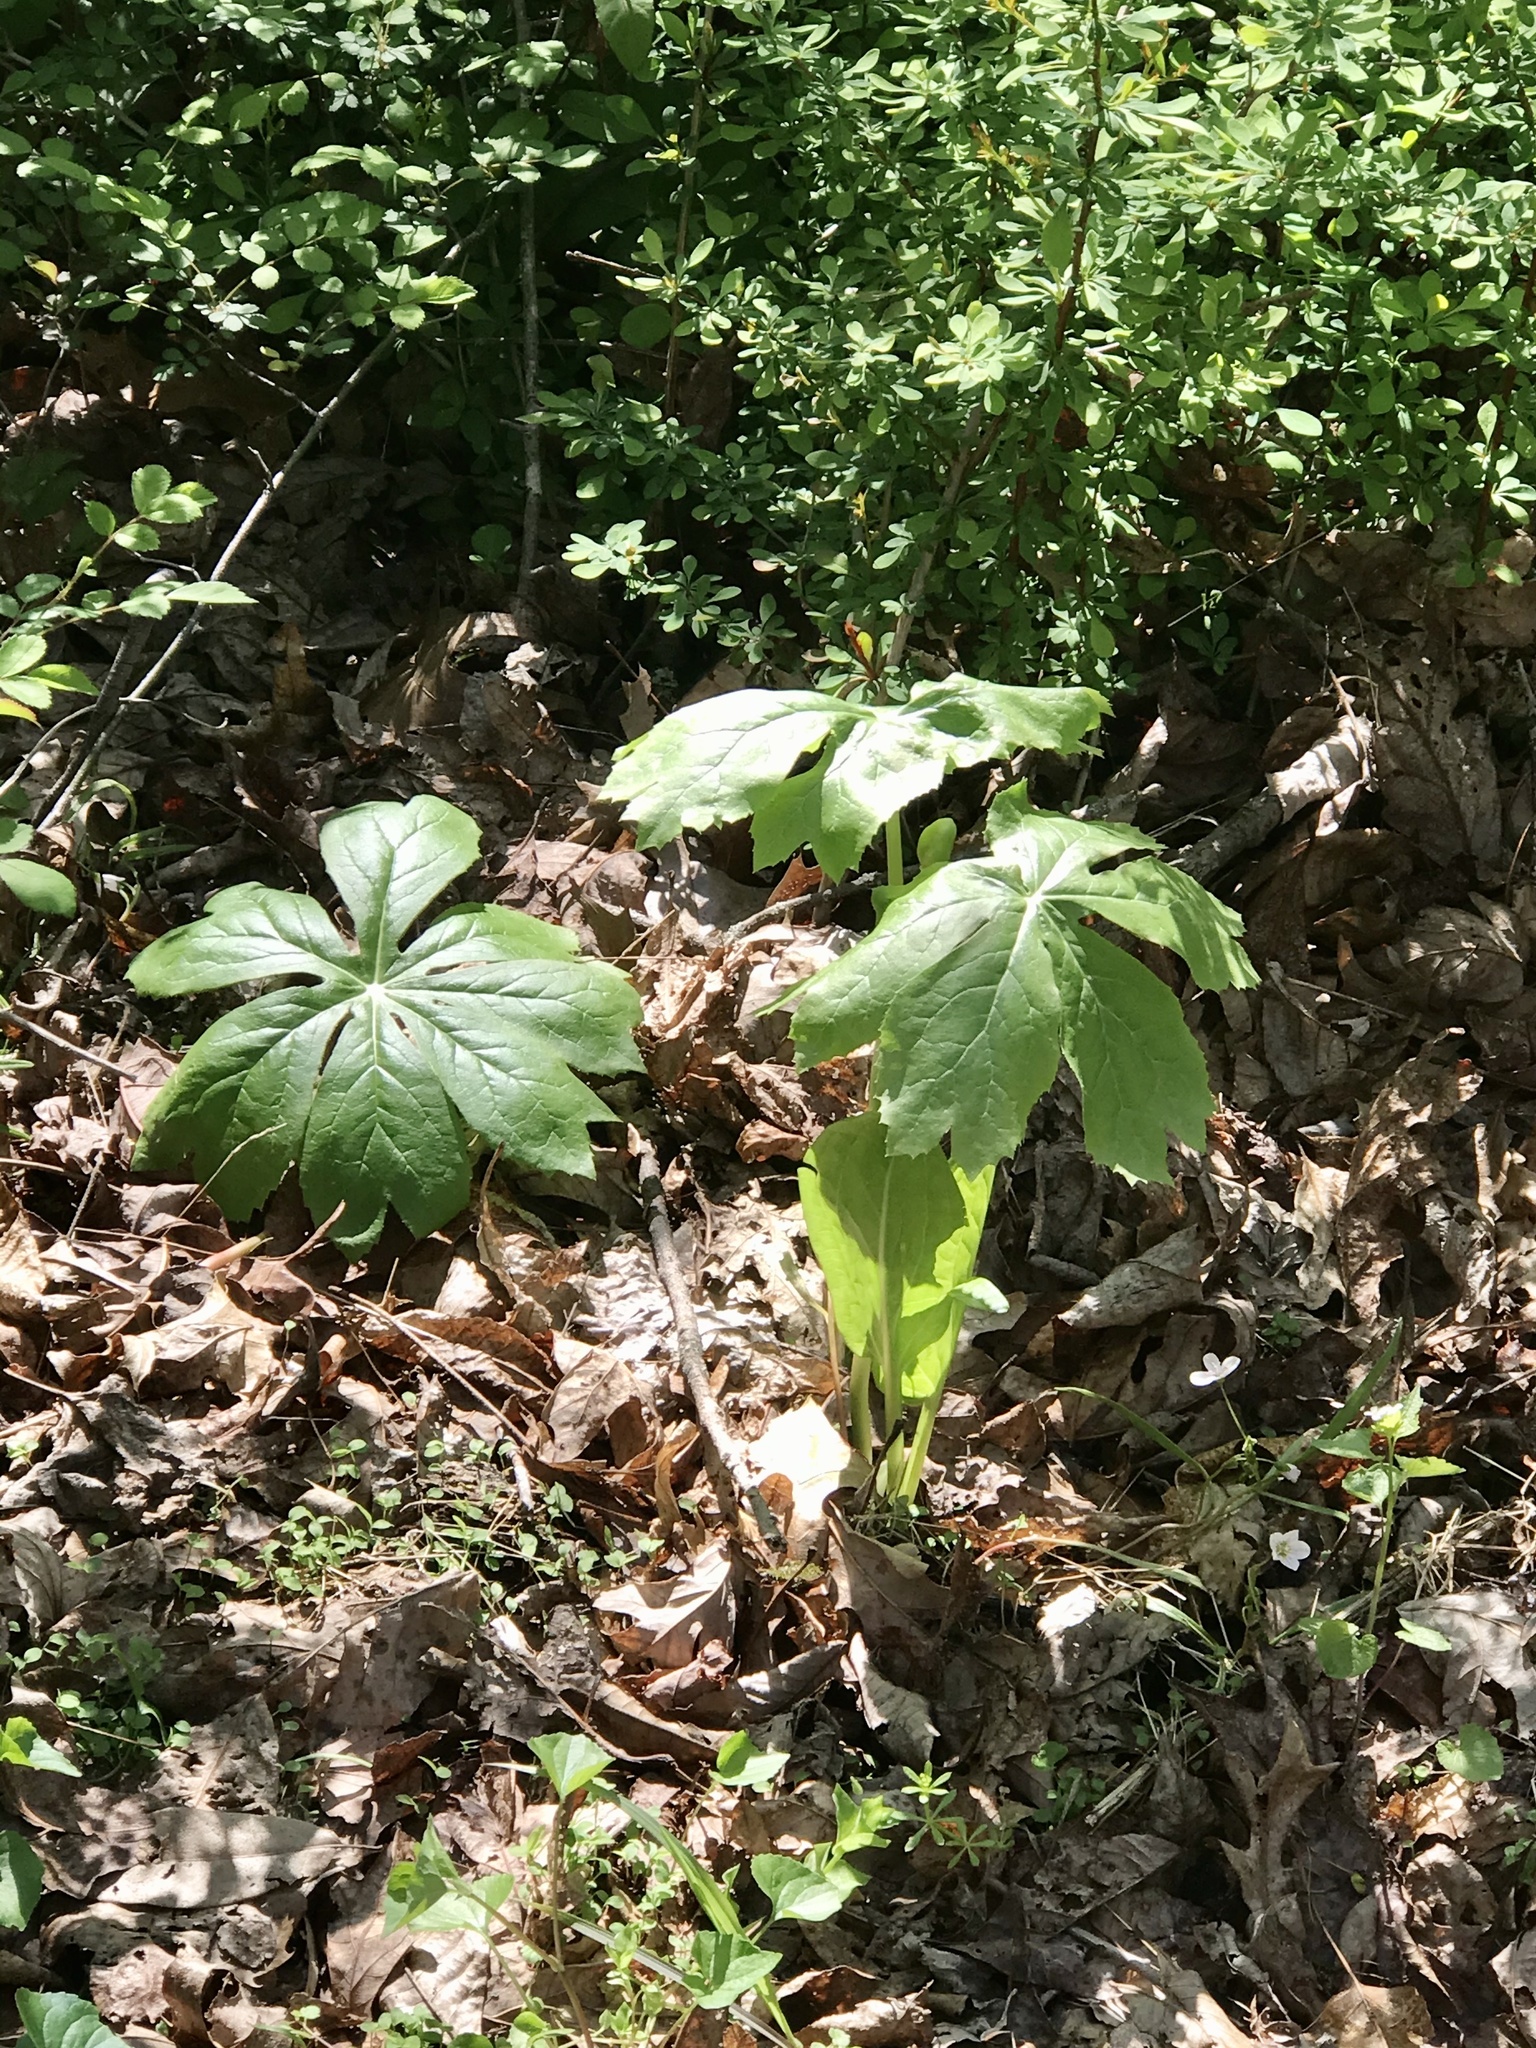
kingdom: Plantae
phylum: Tracheophyta
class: Magnoliopsida
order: Ranunculales
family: Berberidaceae
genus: Podophyllum
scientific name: Podophyllum peltatum
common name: Wild mandrake
